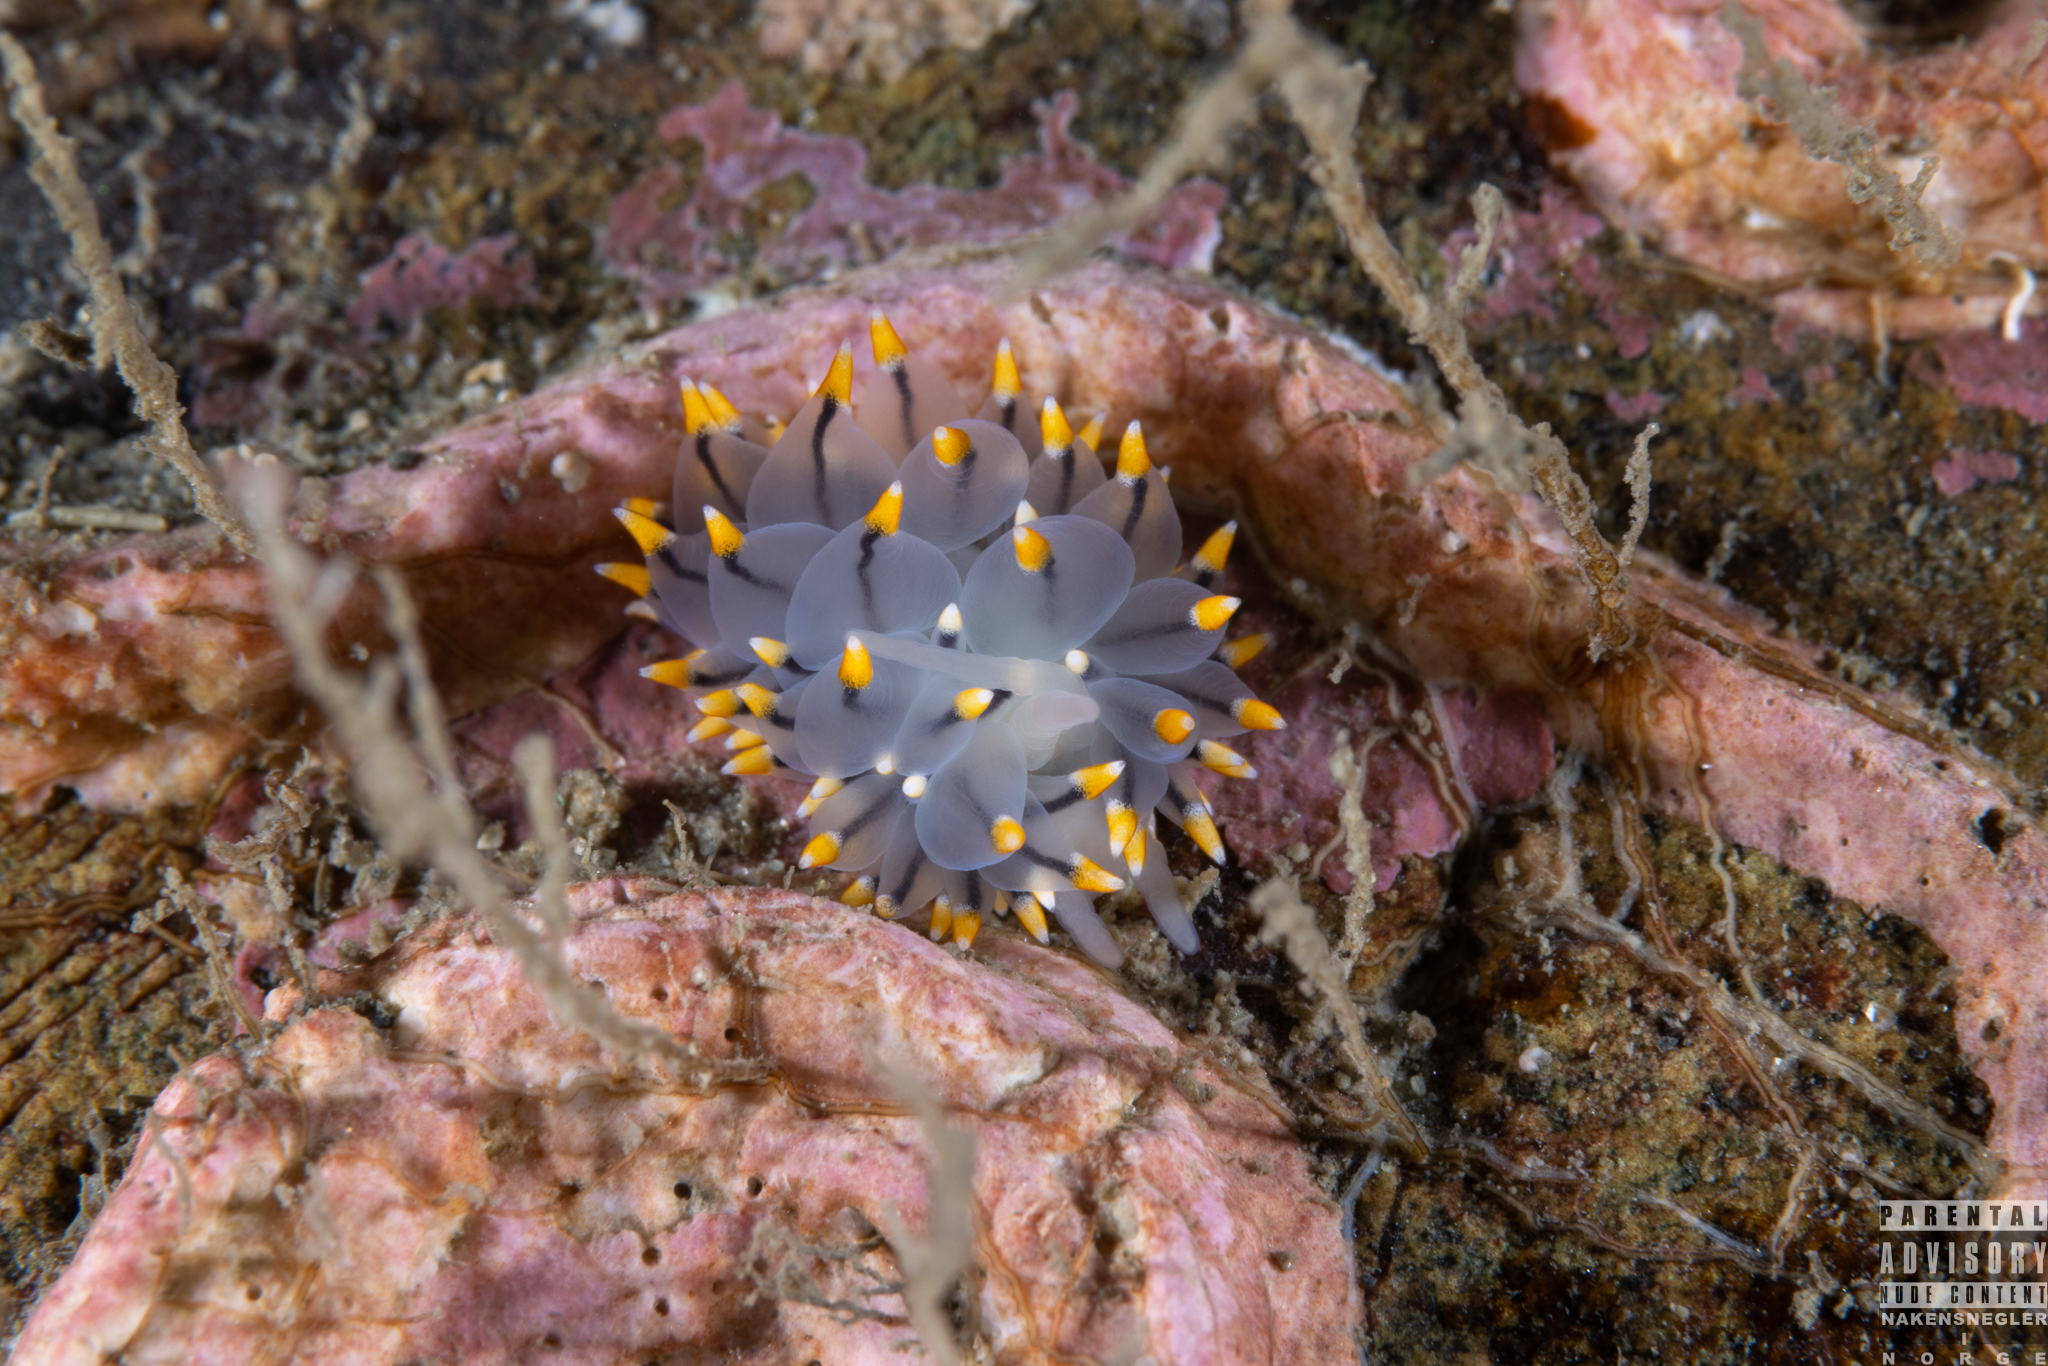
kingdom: Animalia
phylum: Mollusca
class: Gastropoda
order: Nudibranchia
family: Eubranchidae
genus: Eubranchus
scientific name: Eubranchus tricolor
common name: Painted balloon aeolis
